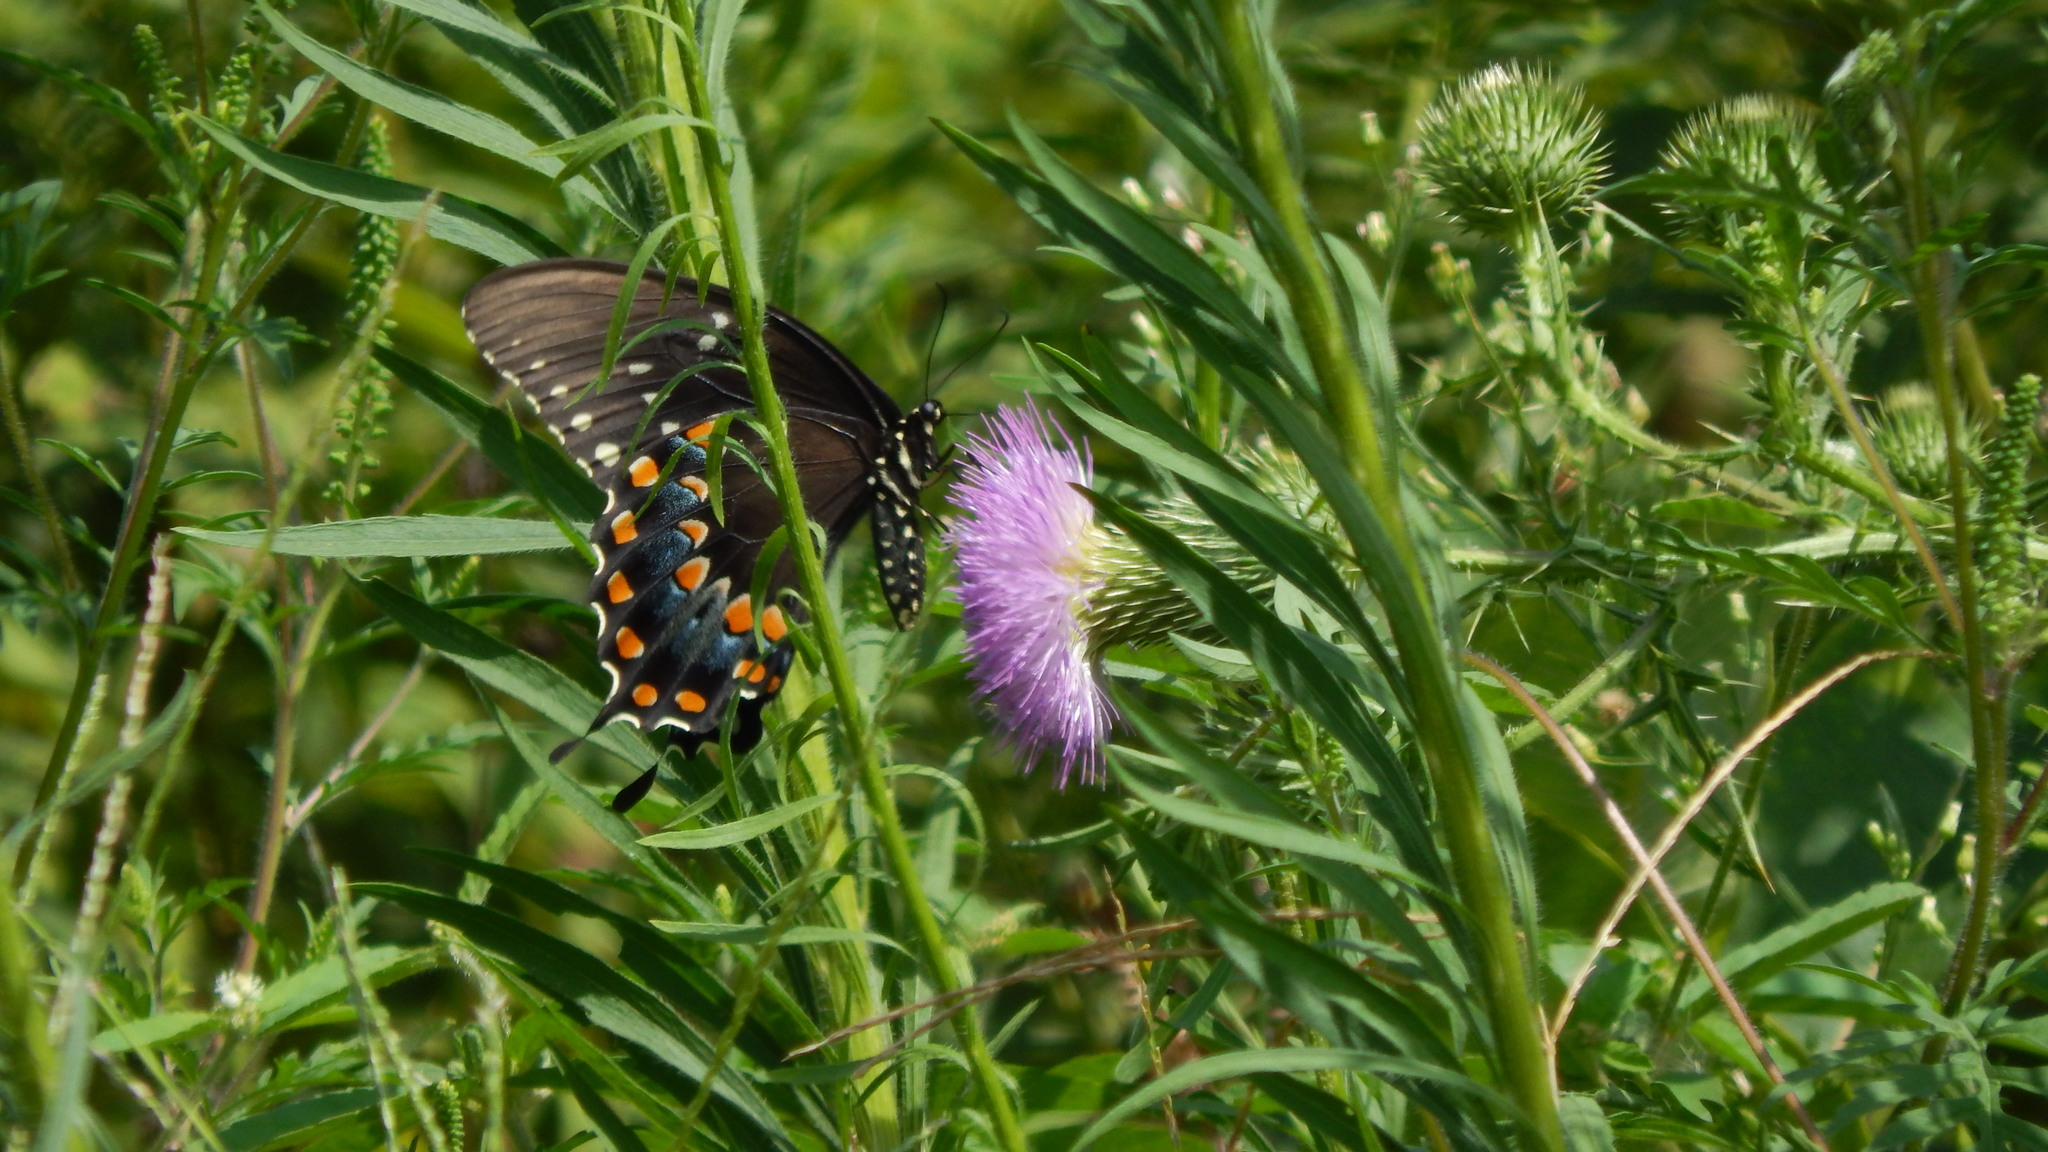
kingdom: Animalia
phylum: Arthropoda
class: Insecta
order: Lepidoptera
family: Papilionidae
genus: Papilio
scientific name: Papilio troilus
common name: Spicebush swallowtail
